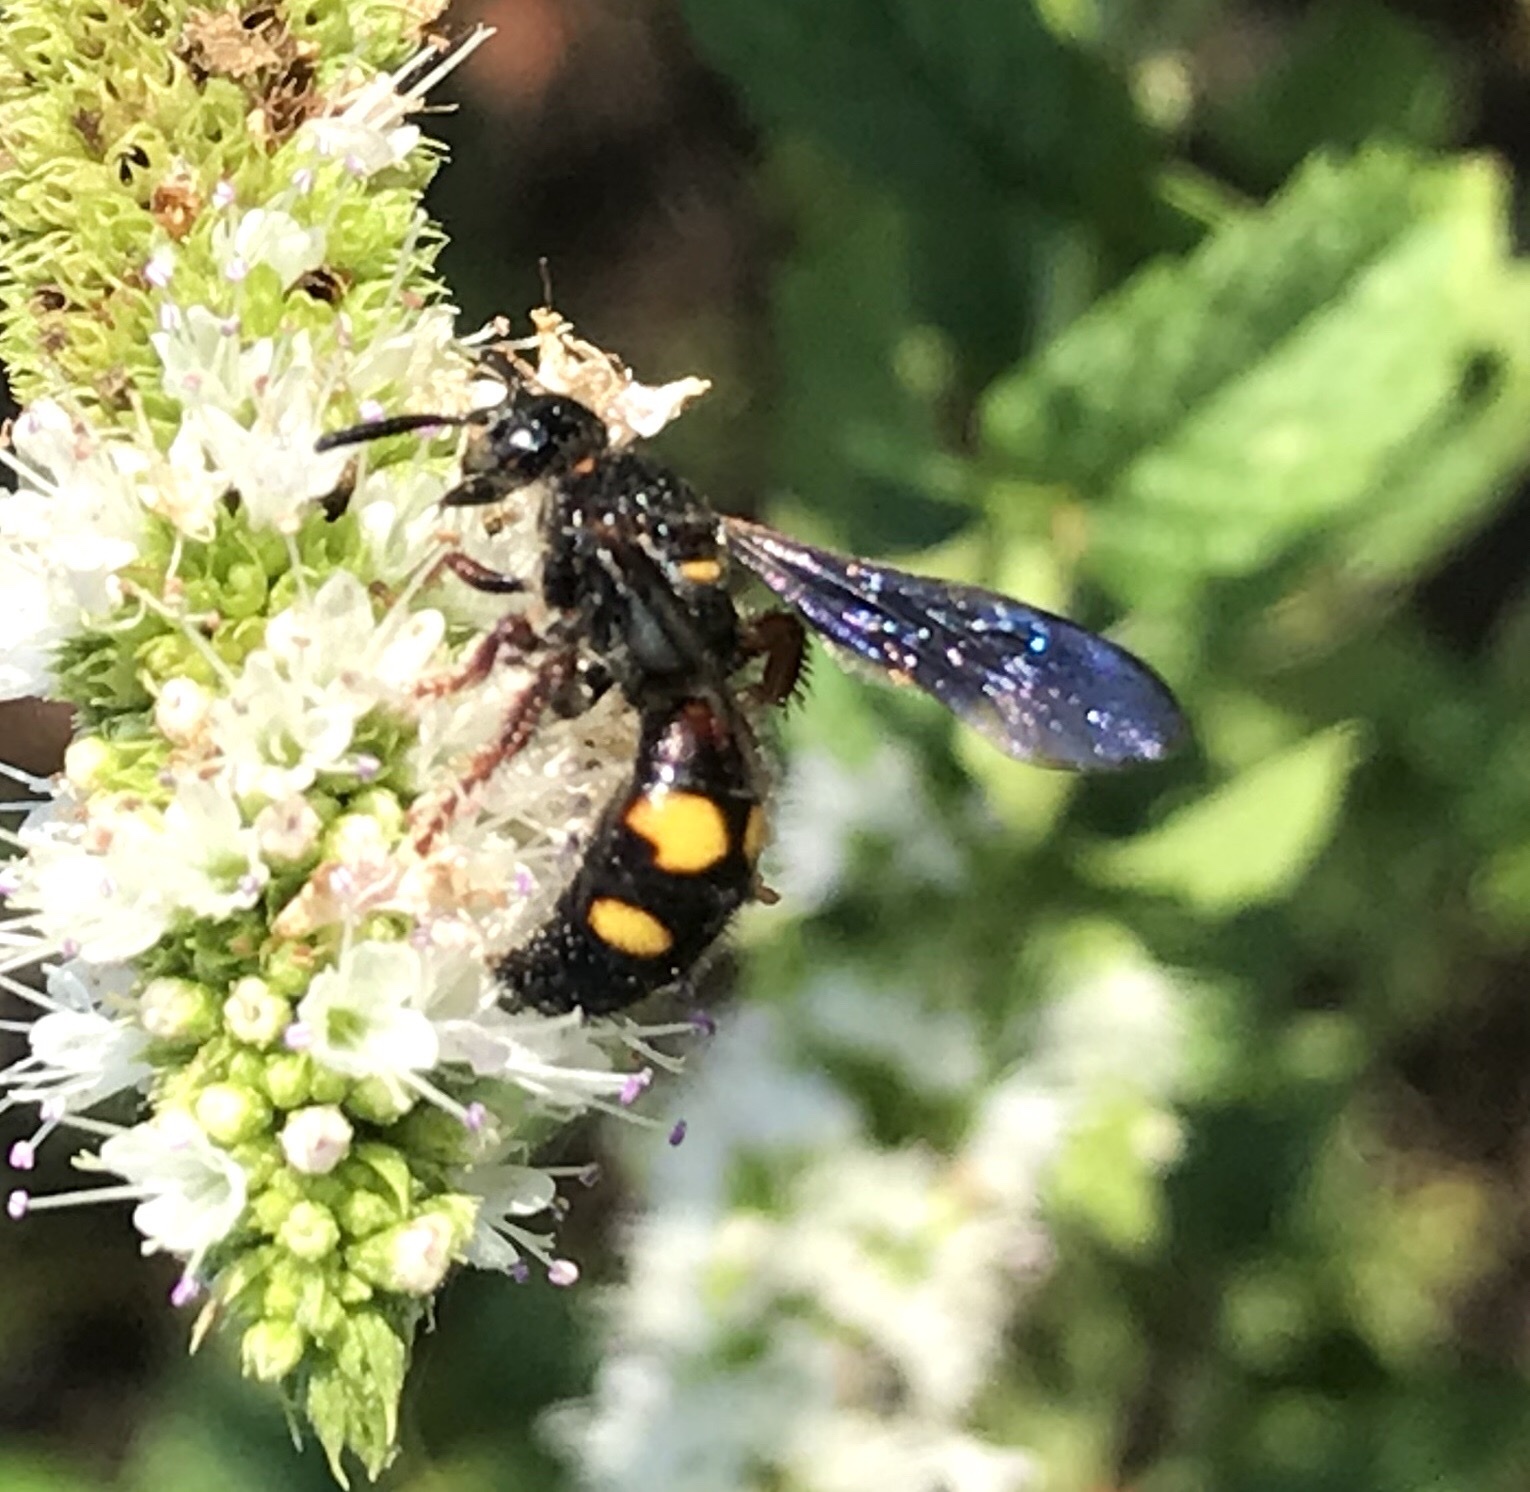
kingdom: Animalia
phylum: Arthropoda
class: Insecta
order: Hymenoptera
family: Scoliidae
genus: Scolia
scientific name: Scolia nobilitata
